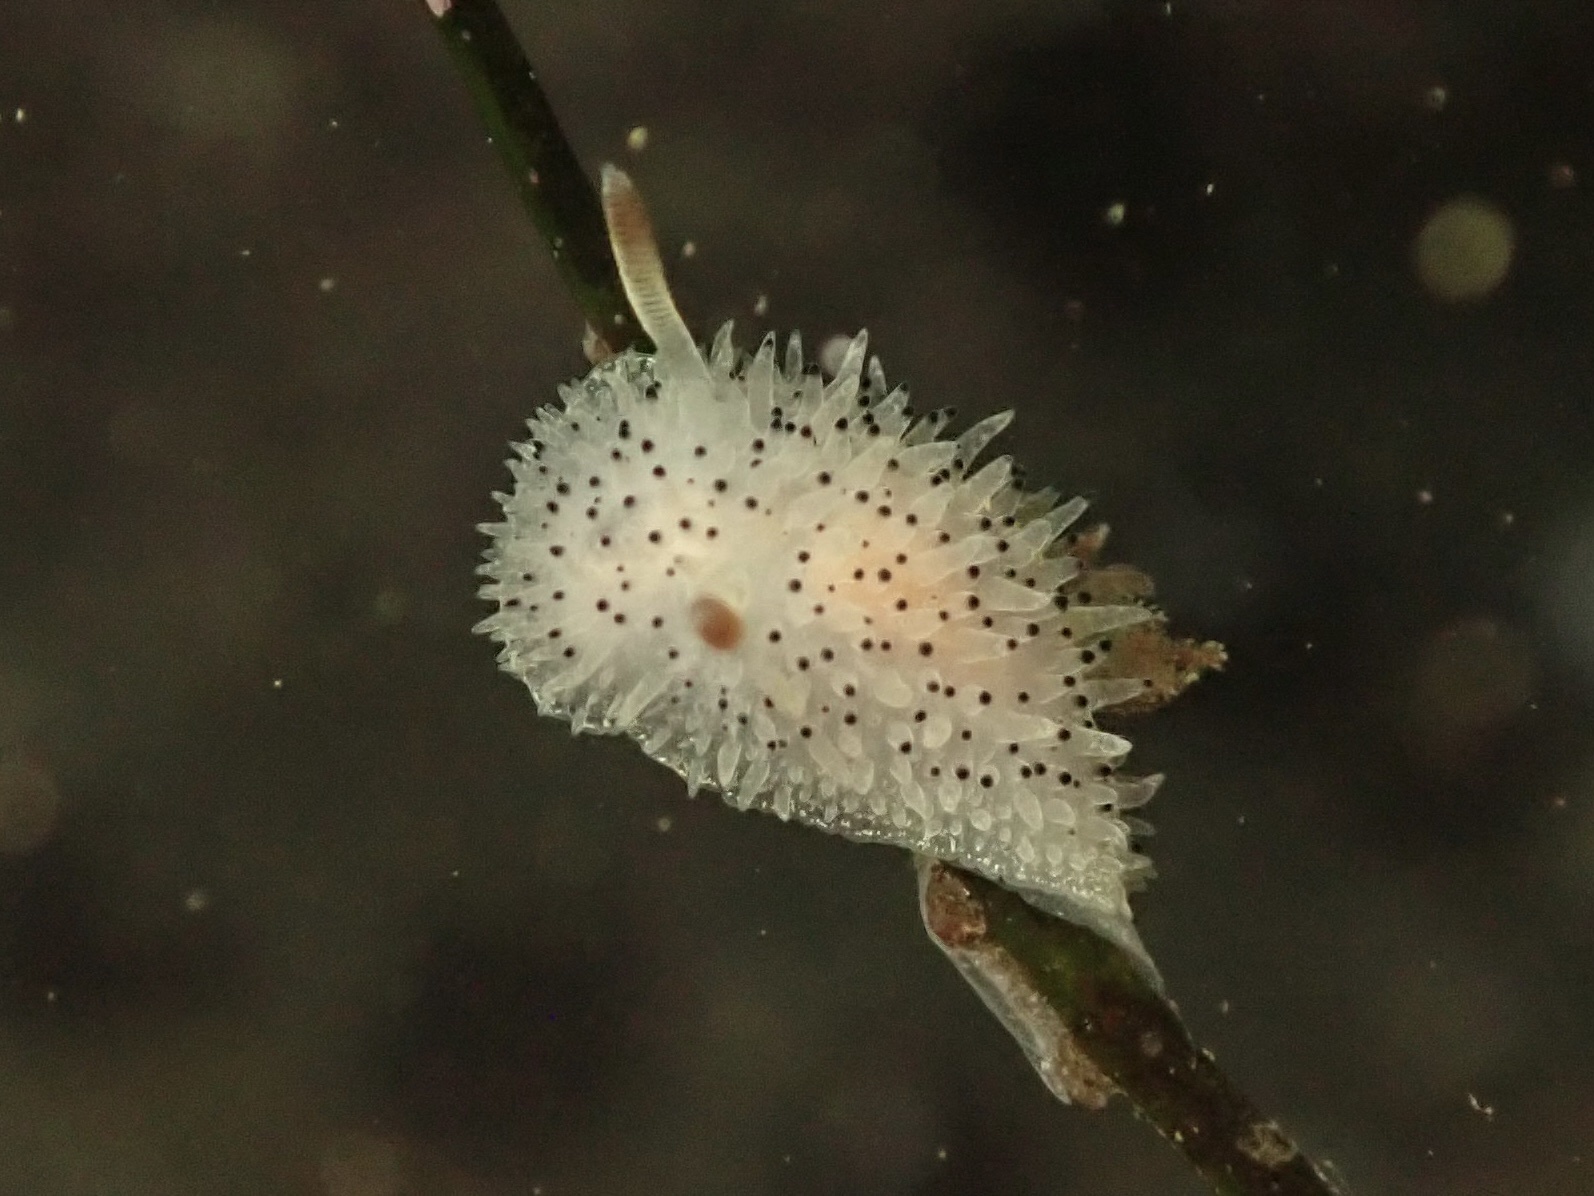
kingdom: Animalia
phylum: Mollusca
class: Gastropoda
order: Nudibranchia
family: Onchidorididae
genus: Acanthodoris
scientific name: Acanthodoris rhodoceras
